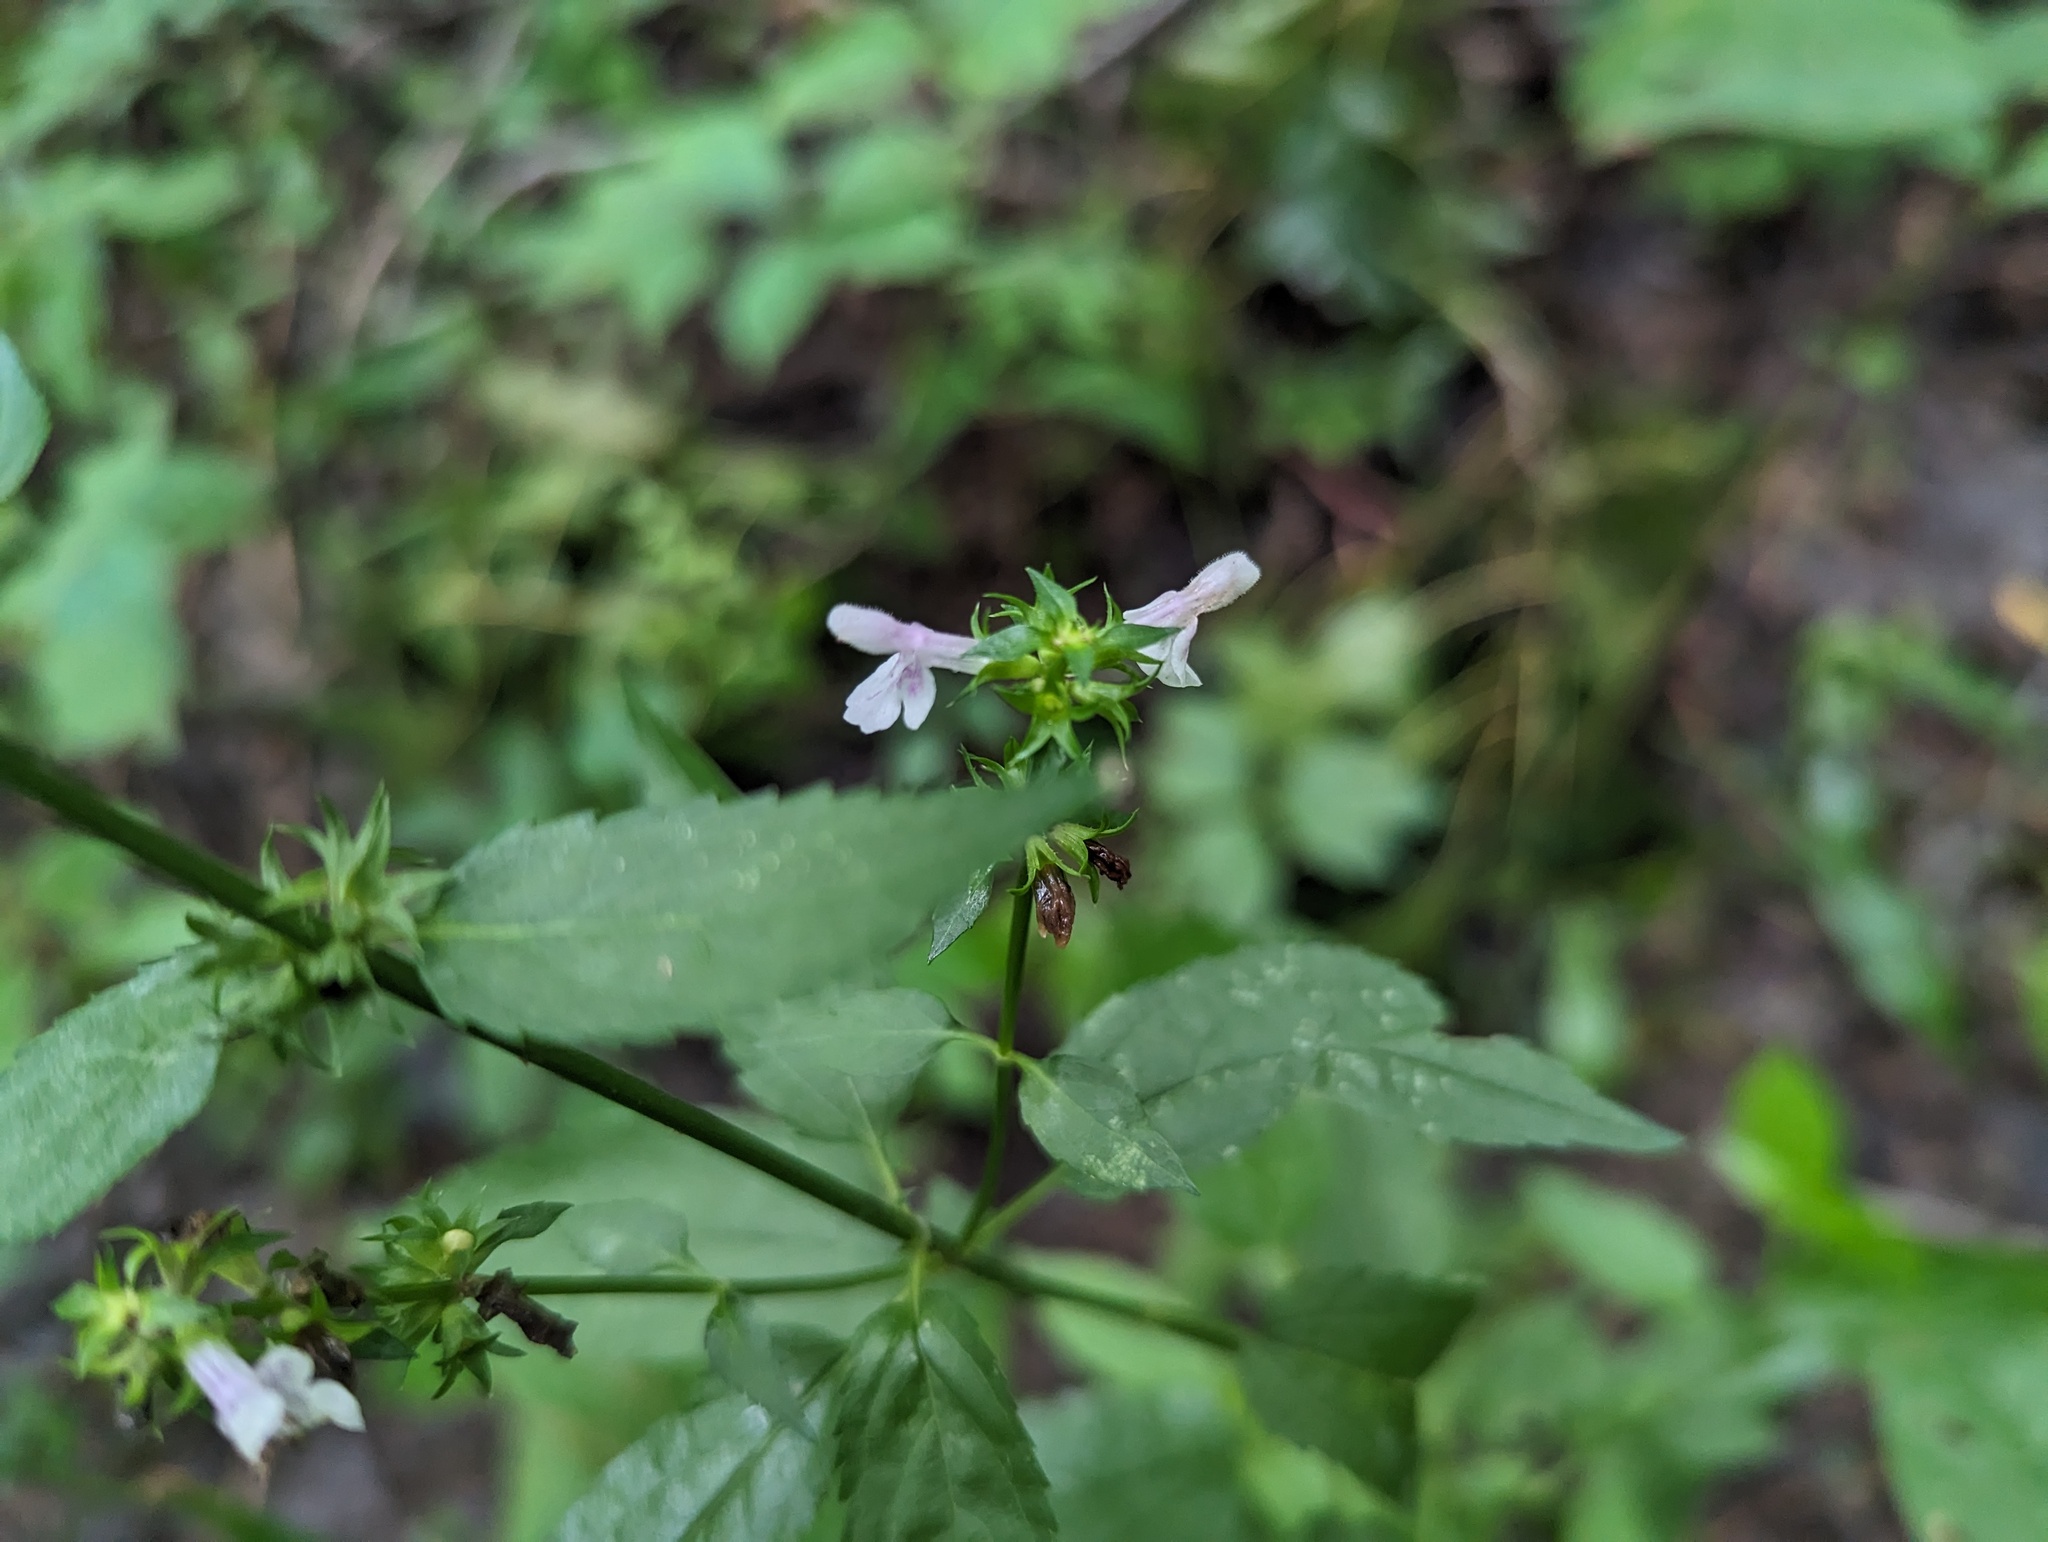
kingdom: Plantae
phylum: Tracheophyta
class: Magnoliopsida
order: Lamiales
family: Lamiaceae
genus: Stachys
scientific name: Stachys tenuifolia
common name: Smooth hedge-nettle
